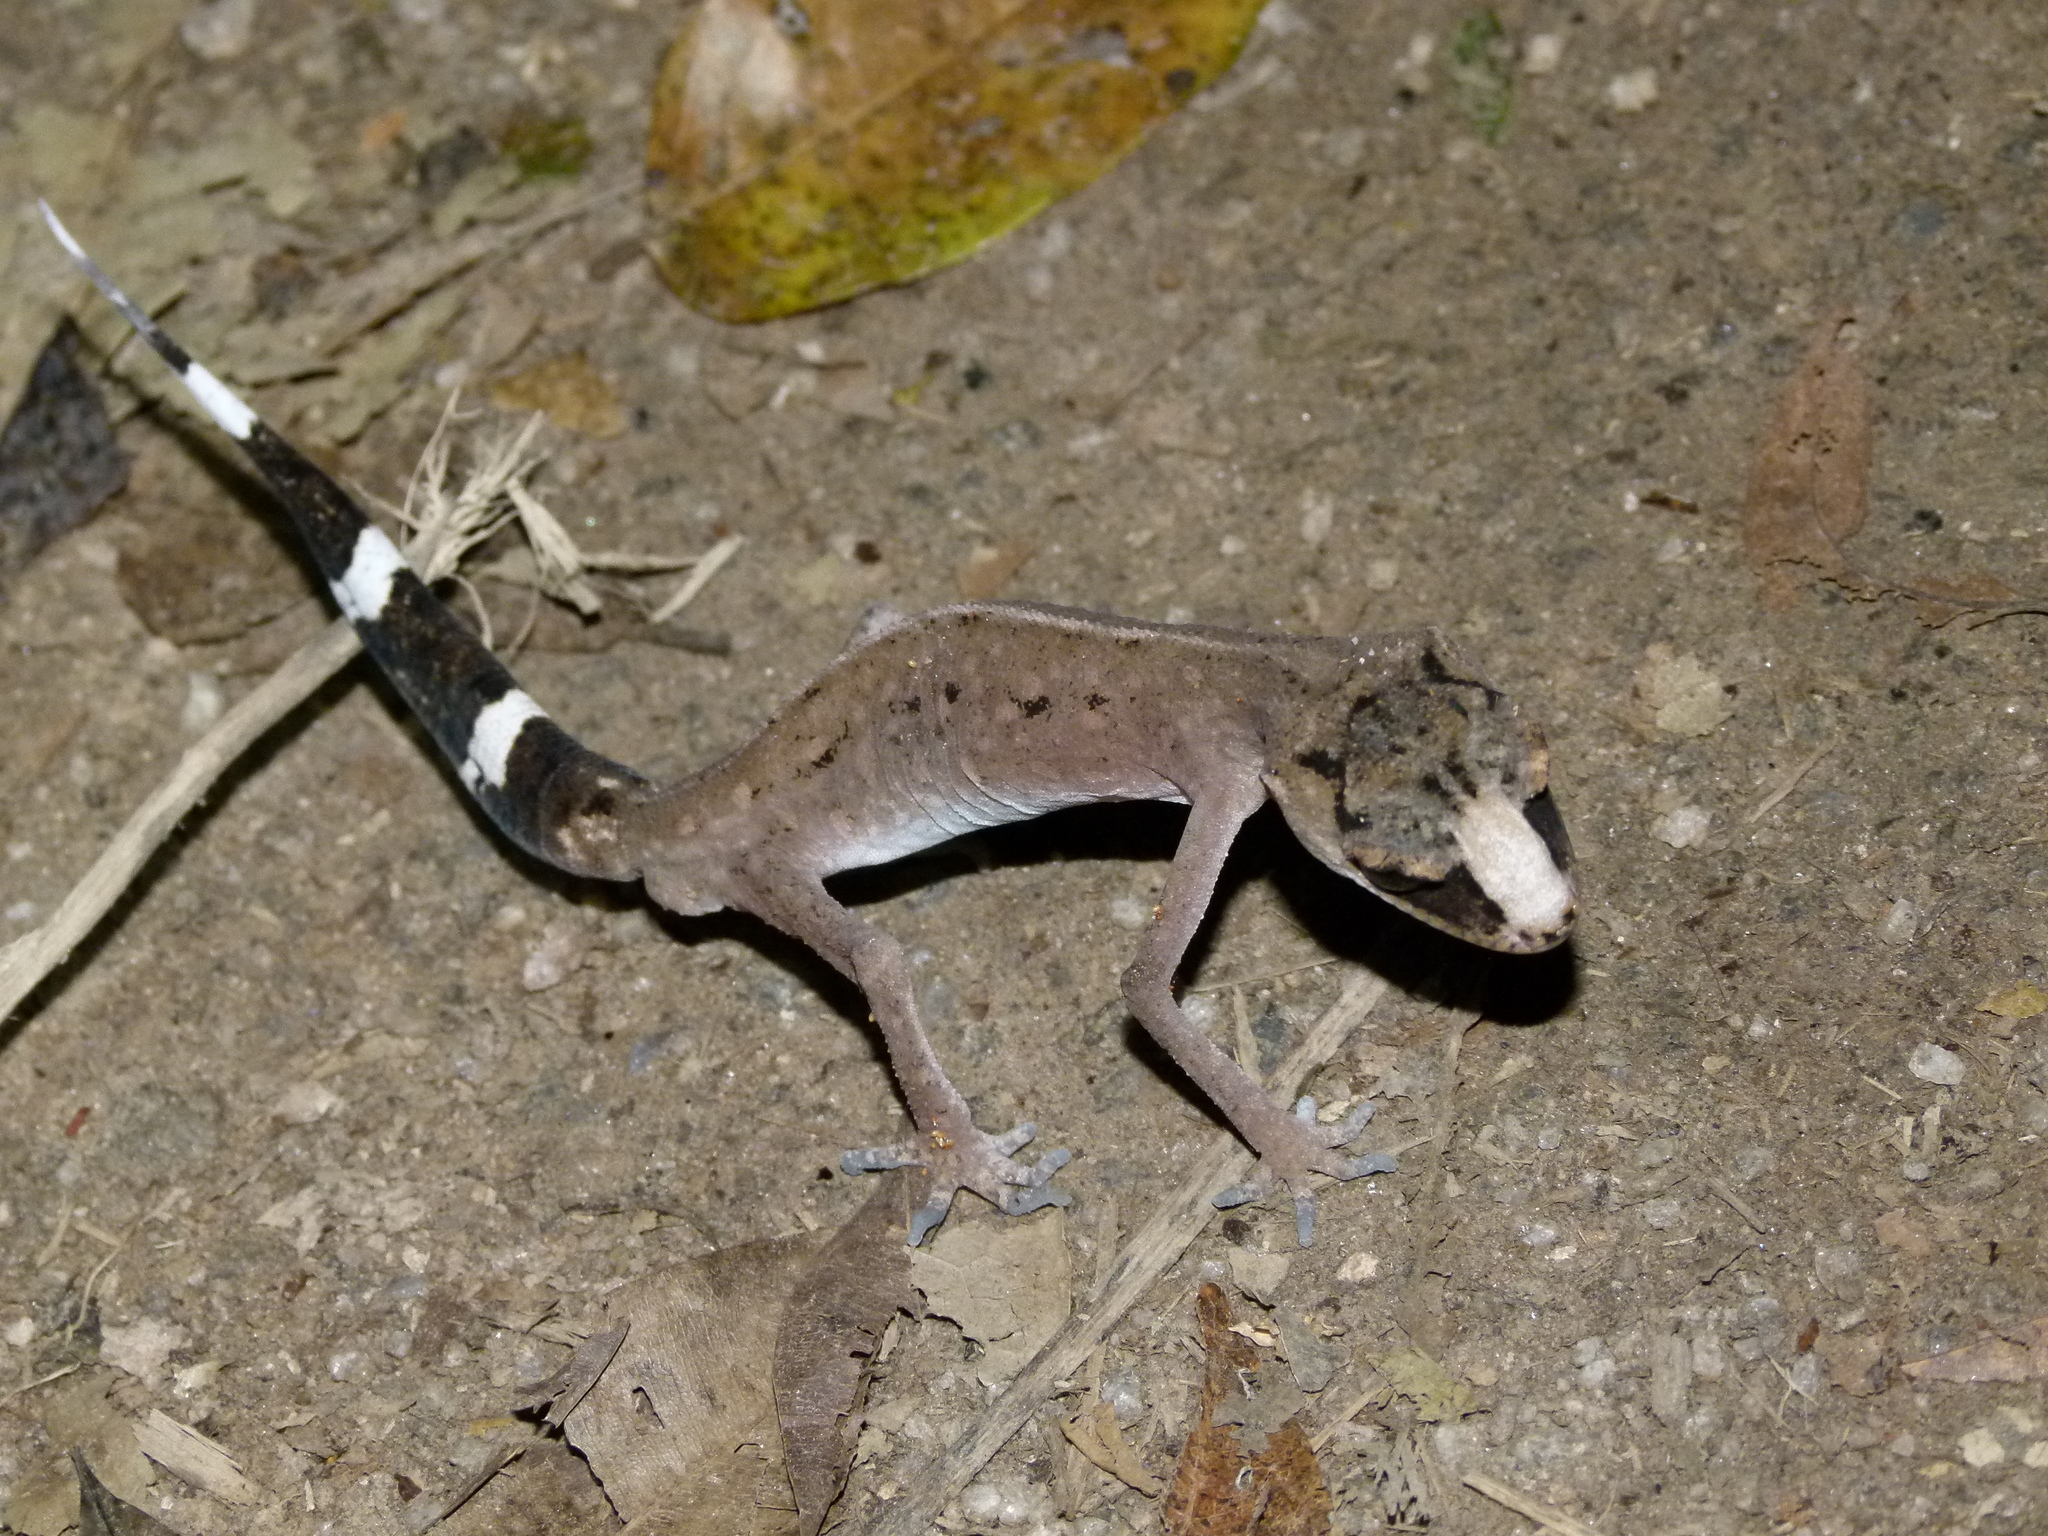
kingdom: Animalia
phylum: Chordata
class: Squamata
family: Carphodactylidae
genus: Carphodactylus
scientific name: Carphodactylus laevis
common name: Chameleon gecko
